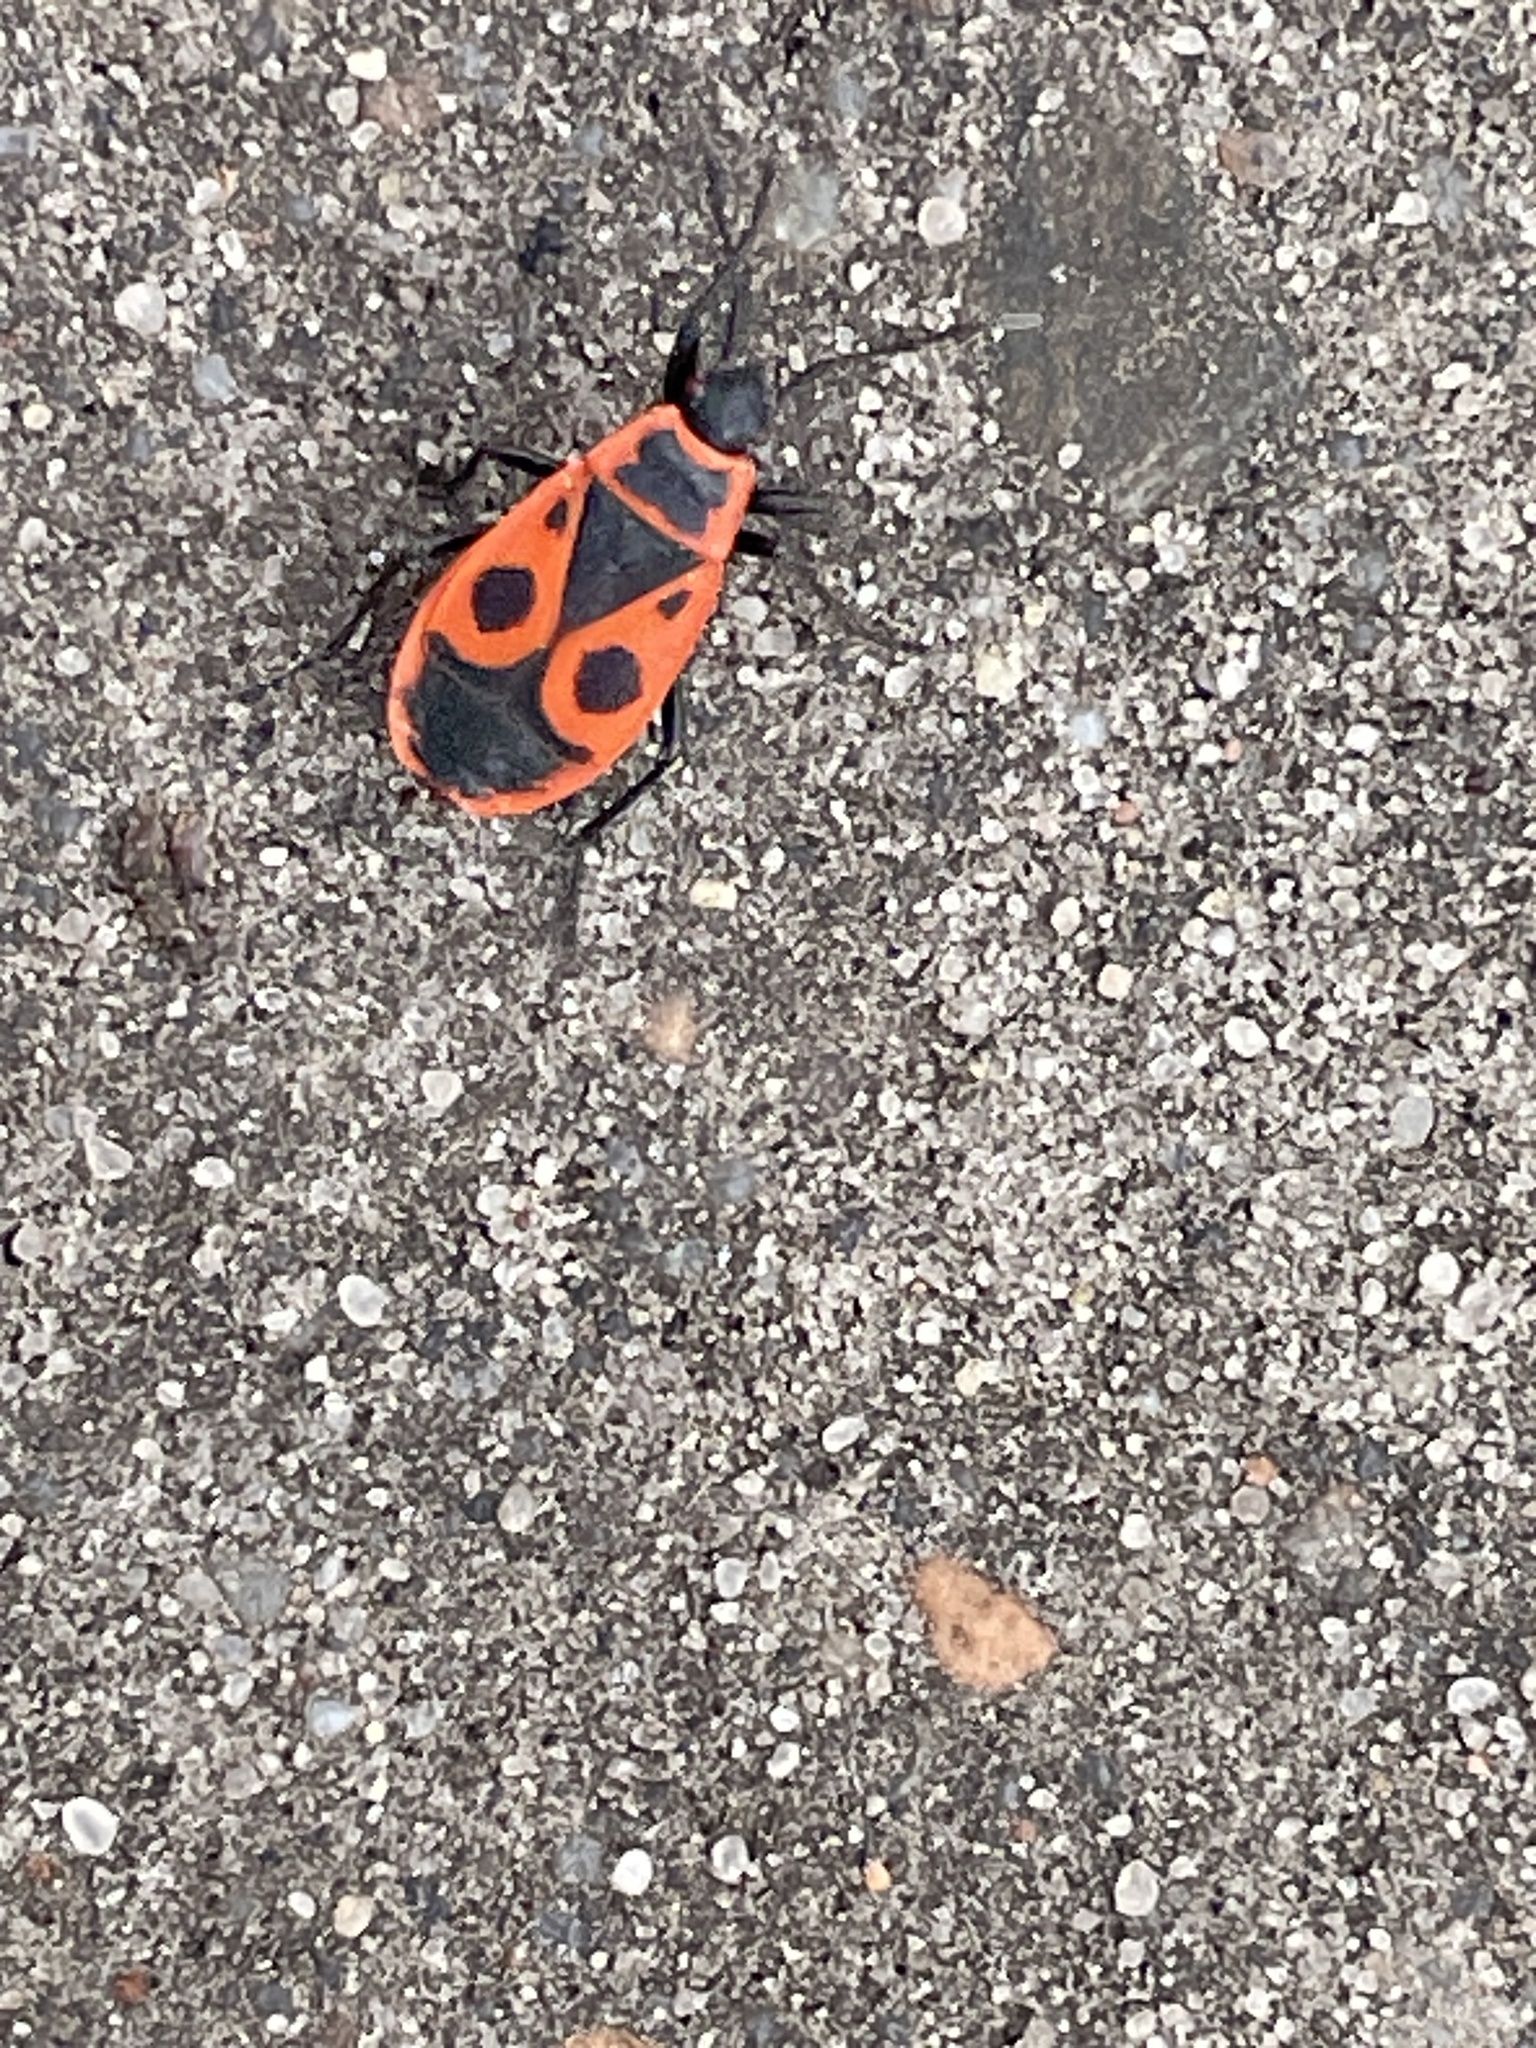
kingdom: Animalia
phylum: Arthropoda
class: Insecta
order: Hemiptera
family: Pyrrhocoridae
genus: Pyrrhocoris
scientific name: Pyrrhocoris apterus
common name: Firebug
